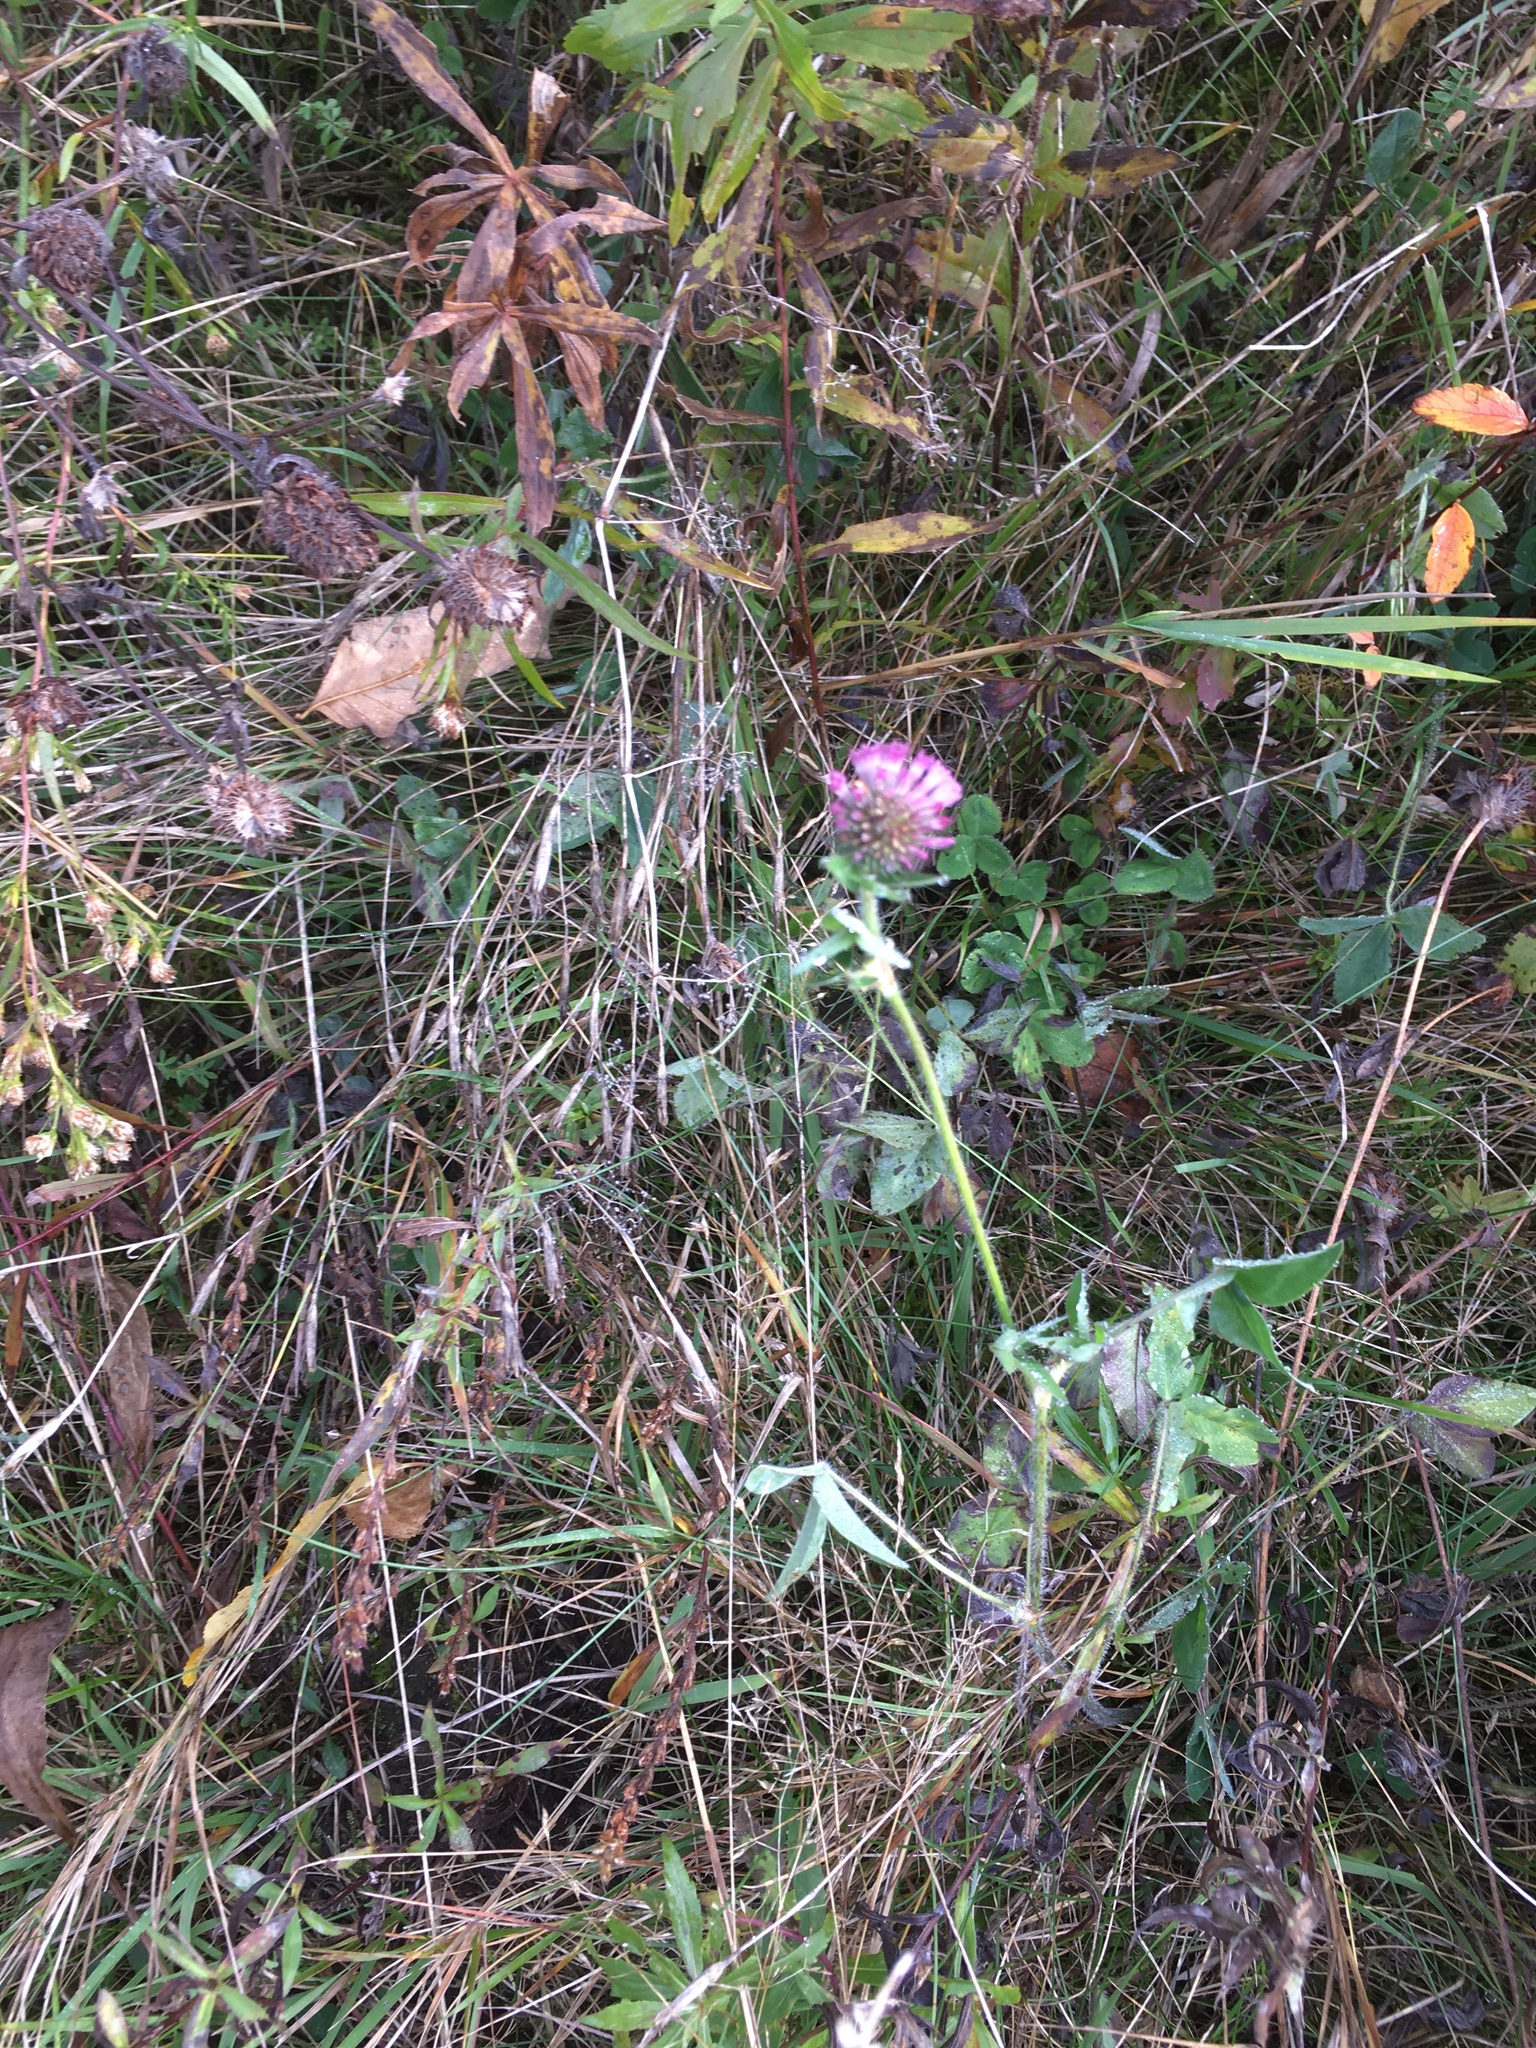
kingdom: Plantae
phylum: Tracheophyta
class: Magnoliopsida
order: Fabales
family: Fabaceae
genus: Trifolium
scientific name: Trifolium pratense
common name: Red clover
